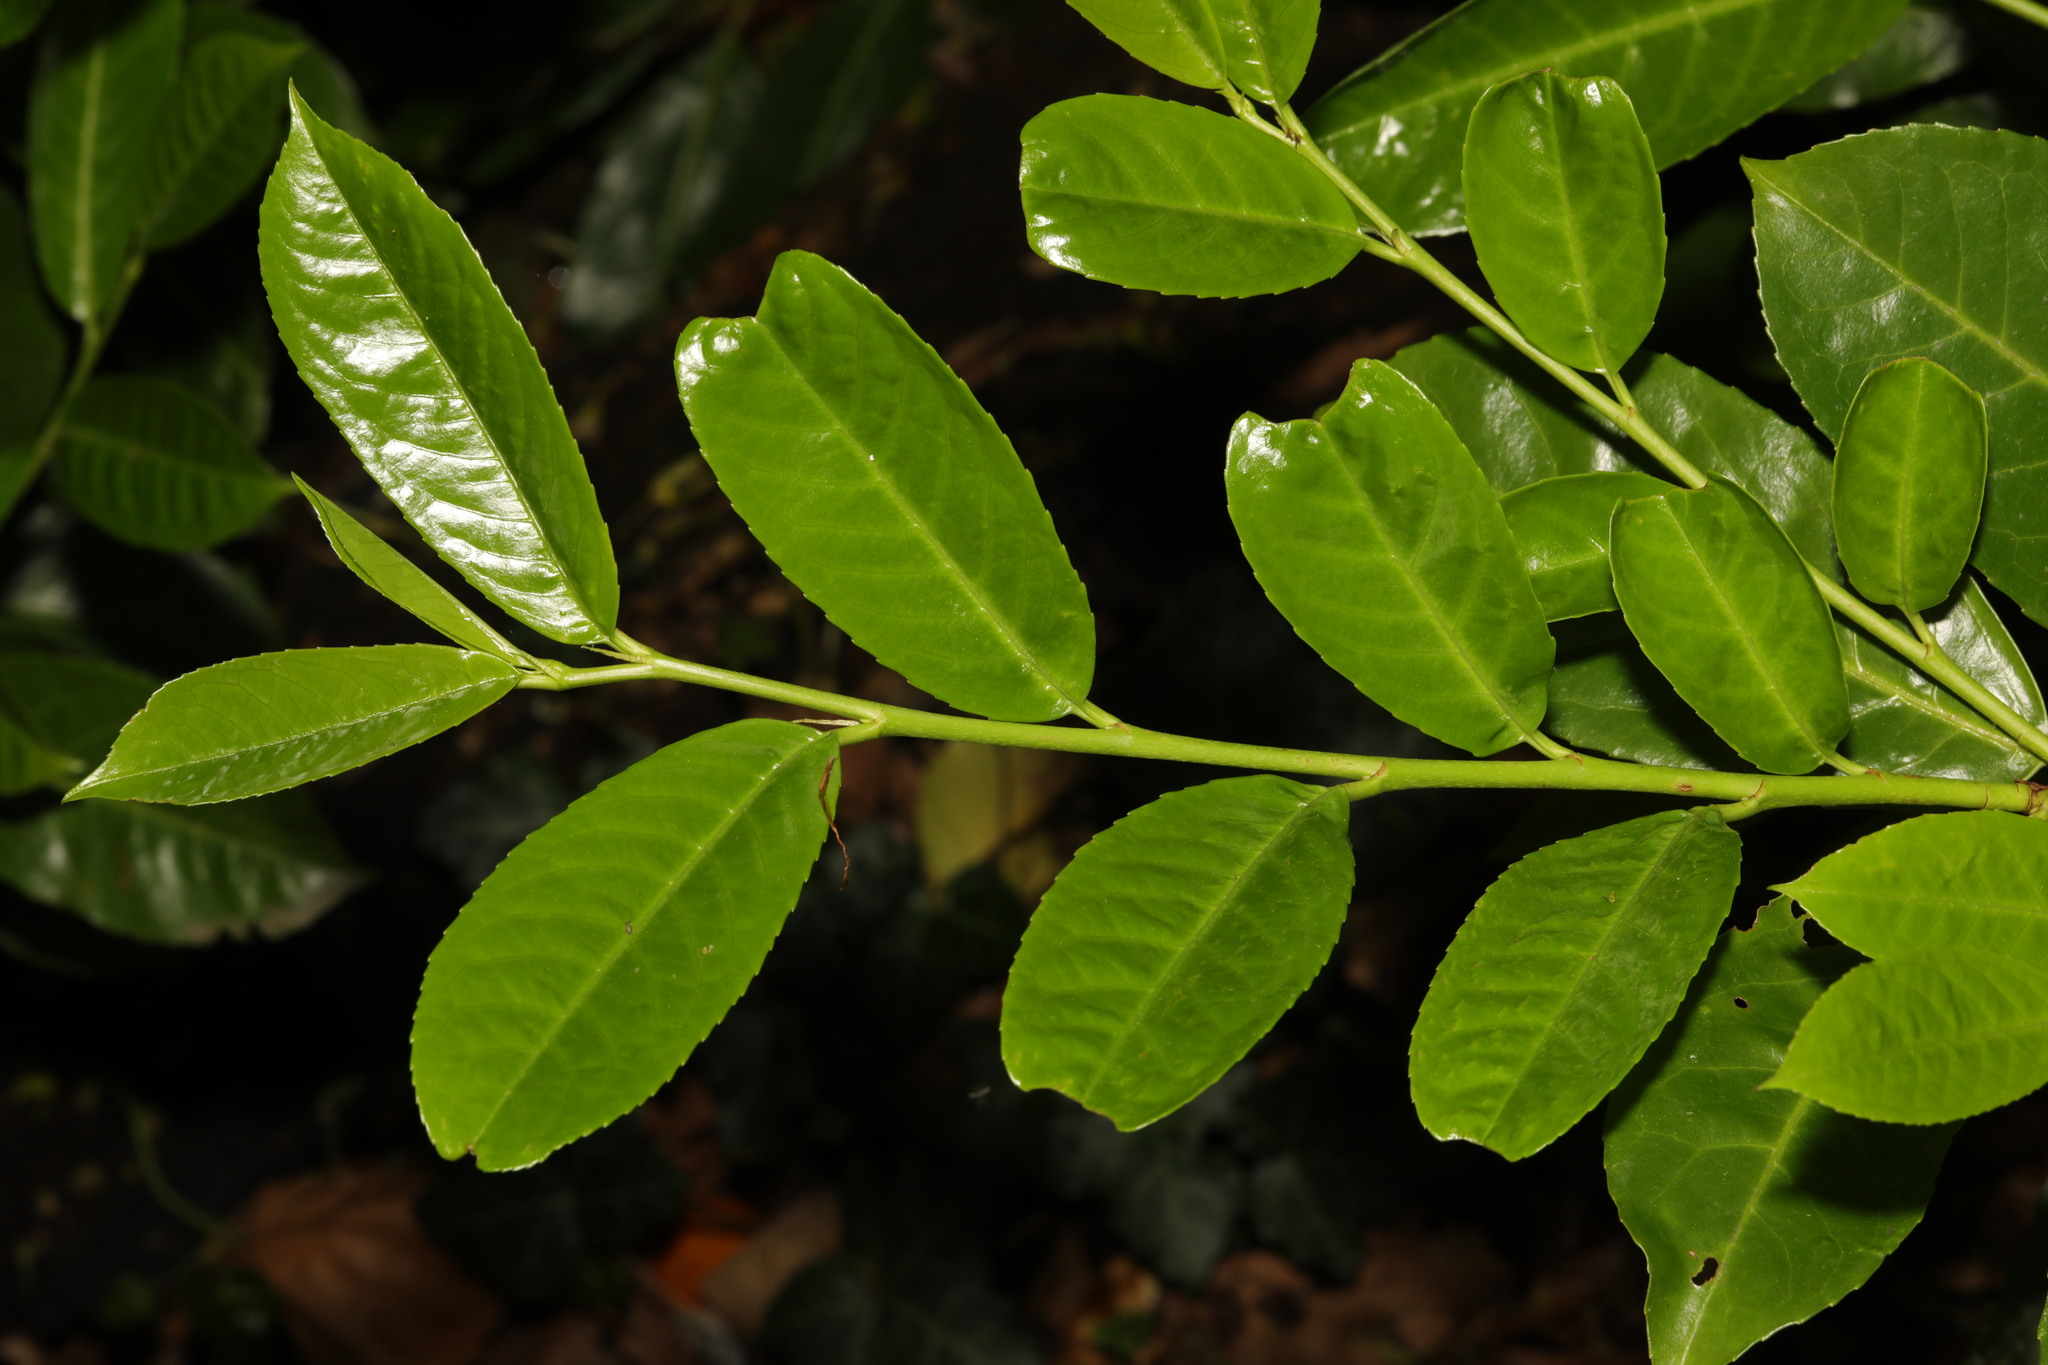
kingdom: Plantae
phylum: Tracheophyta
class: Magnoliopsida
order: Rosales
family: Rosaceae
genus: Prunus
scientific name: Prunus laurocerasus
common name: Cherry laurel
